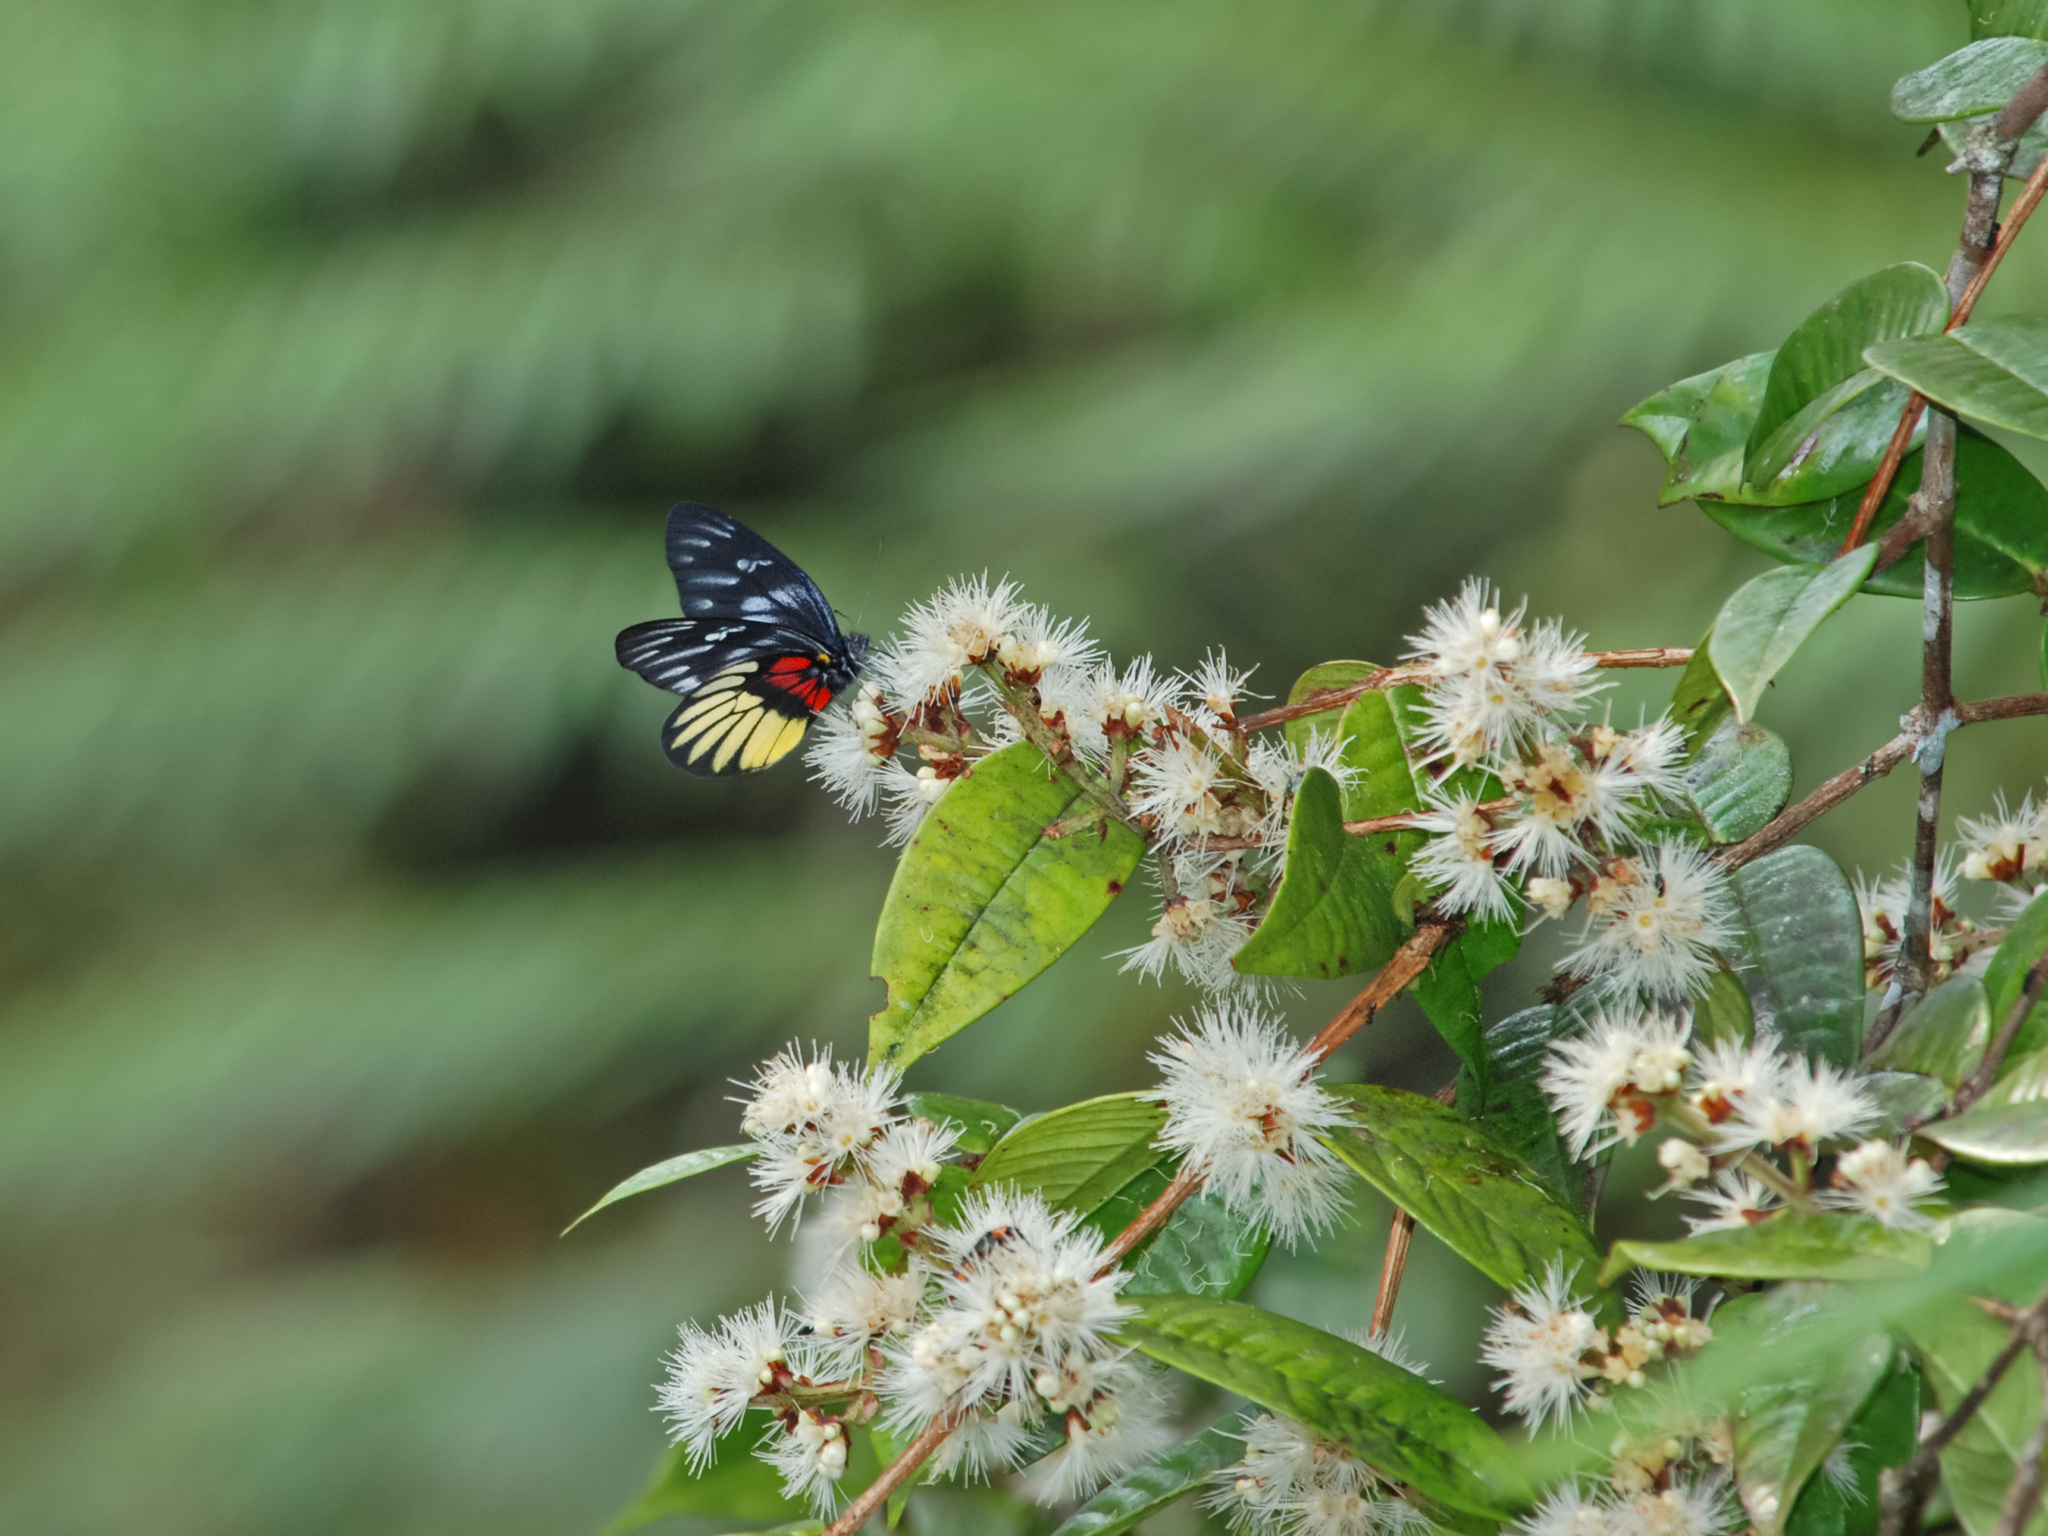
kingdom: Animalia
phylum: Arthropoda
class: Insecta
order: Lepidoptera
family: Pieridae
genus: Delias
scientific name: Delias acalis
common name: Red-breast jezebel
